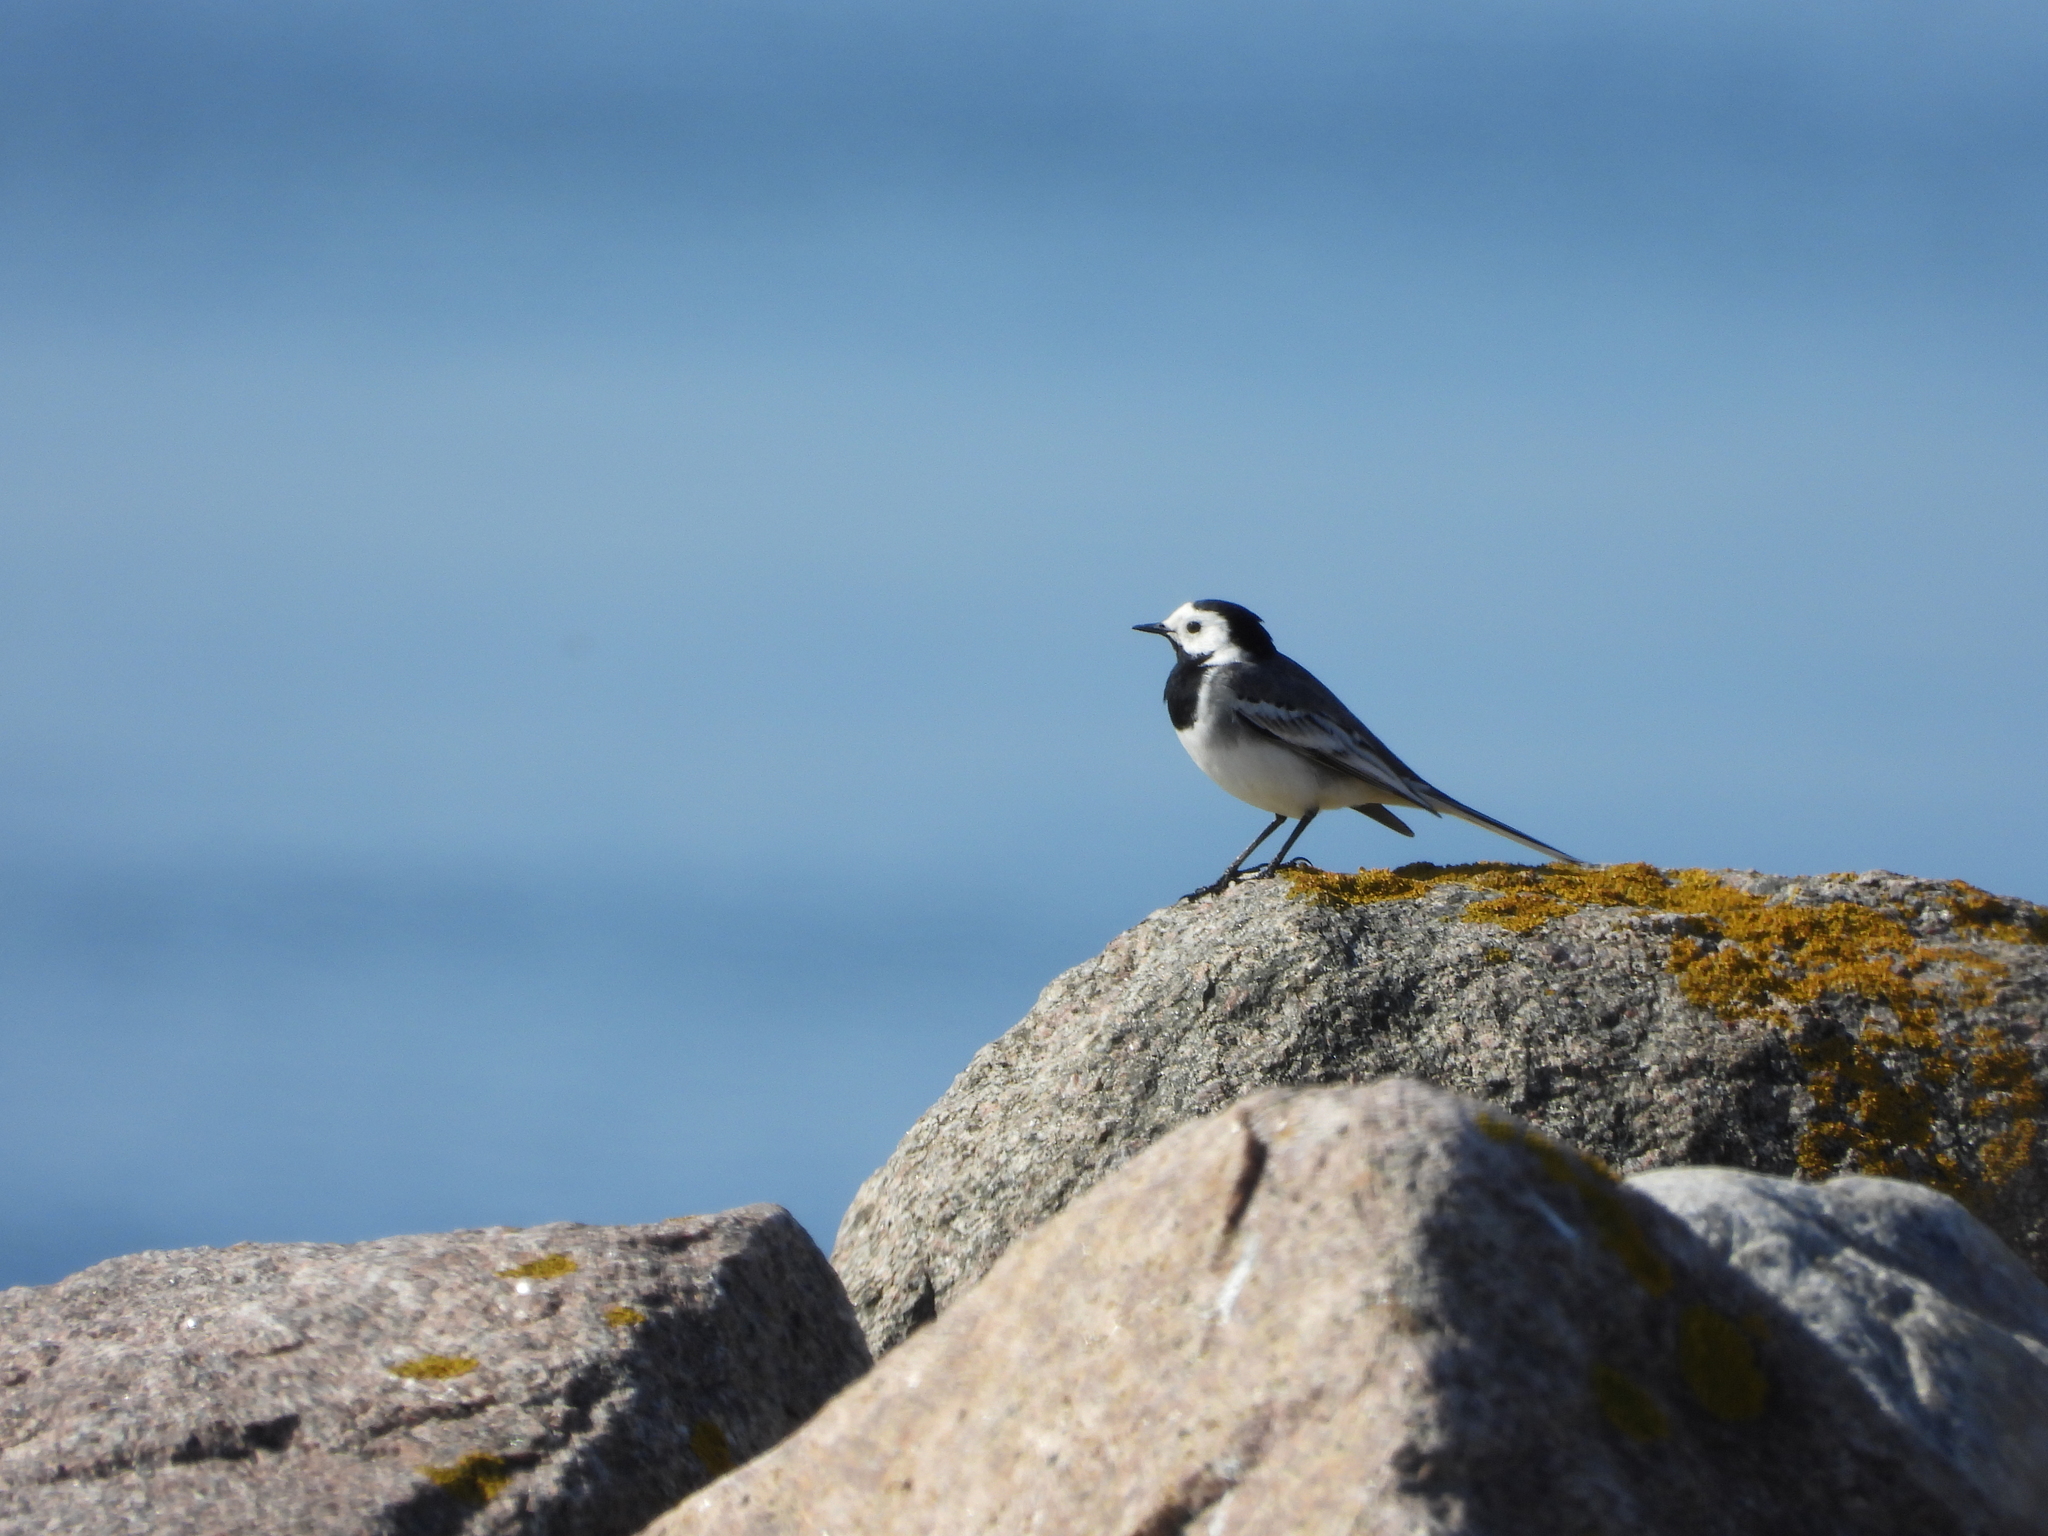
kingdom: Animalia
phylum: Chordata
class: Aves
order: Passeriformes
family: Motacillidae
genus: Motacilla
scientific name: Motacilla alba
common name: White wagtail
